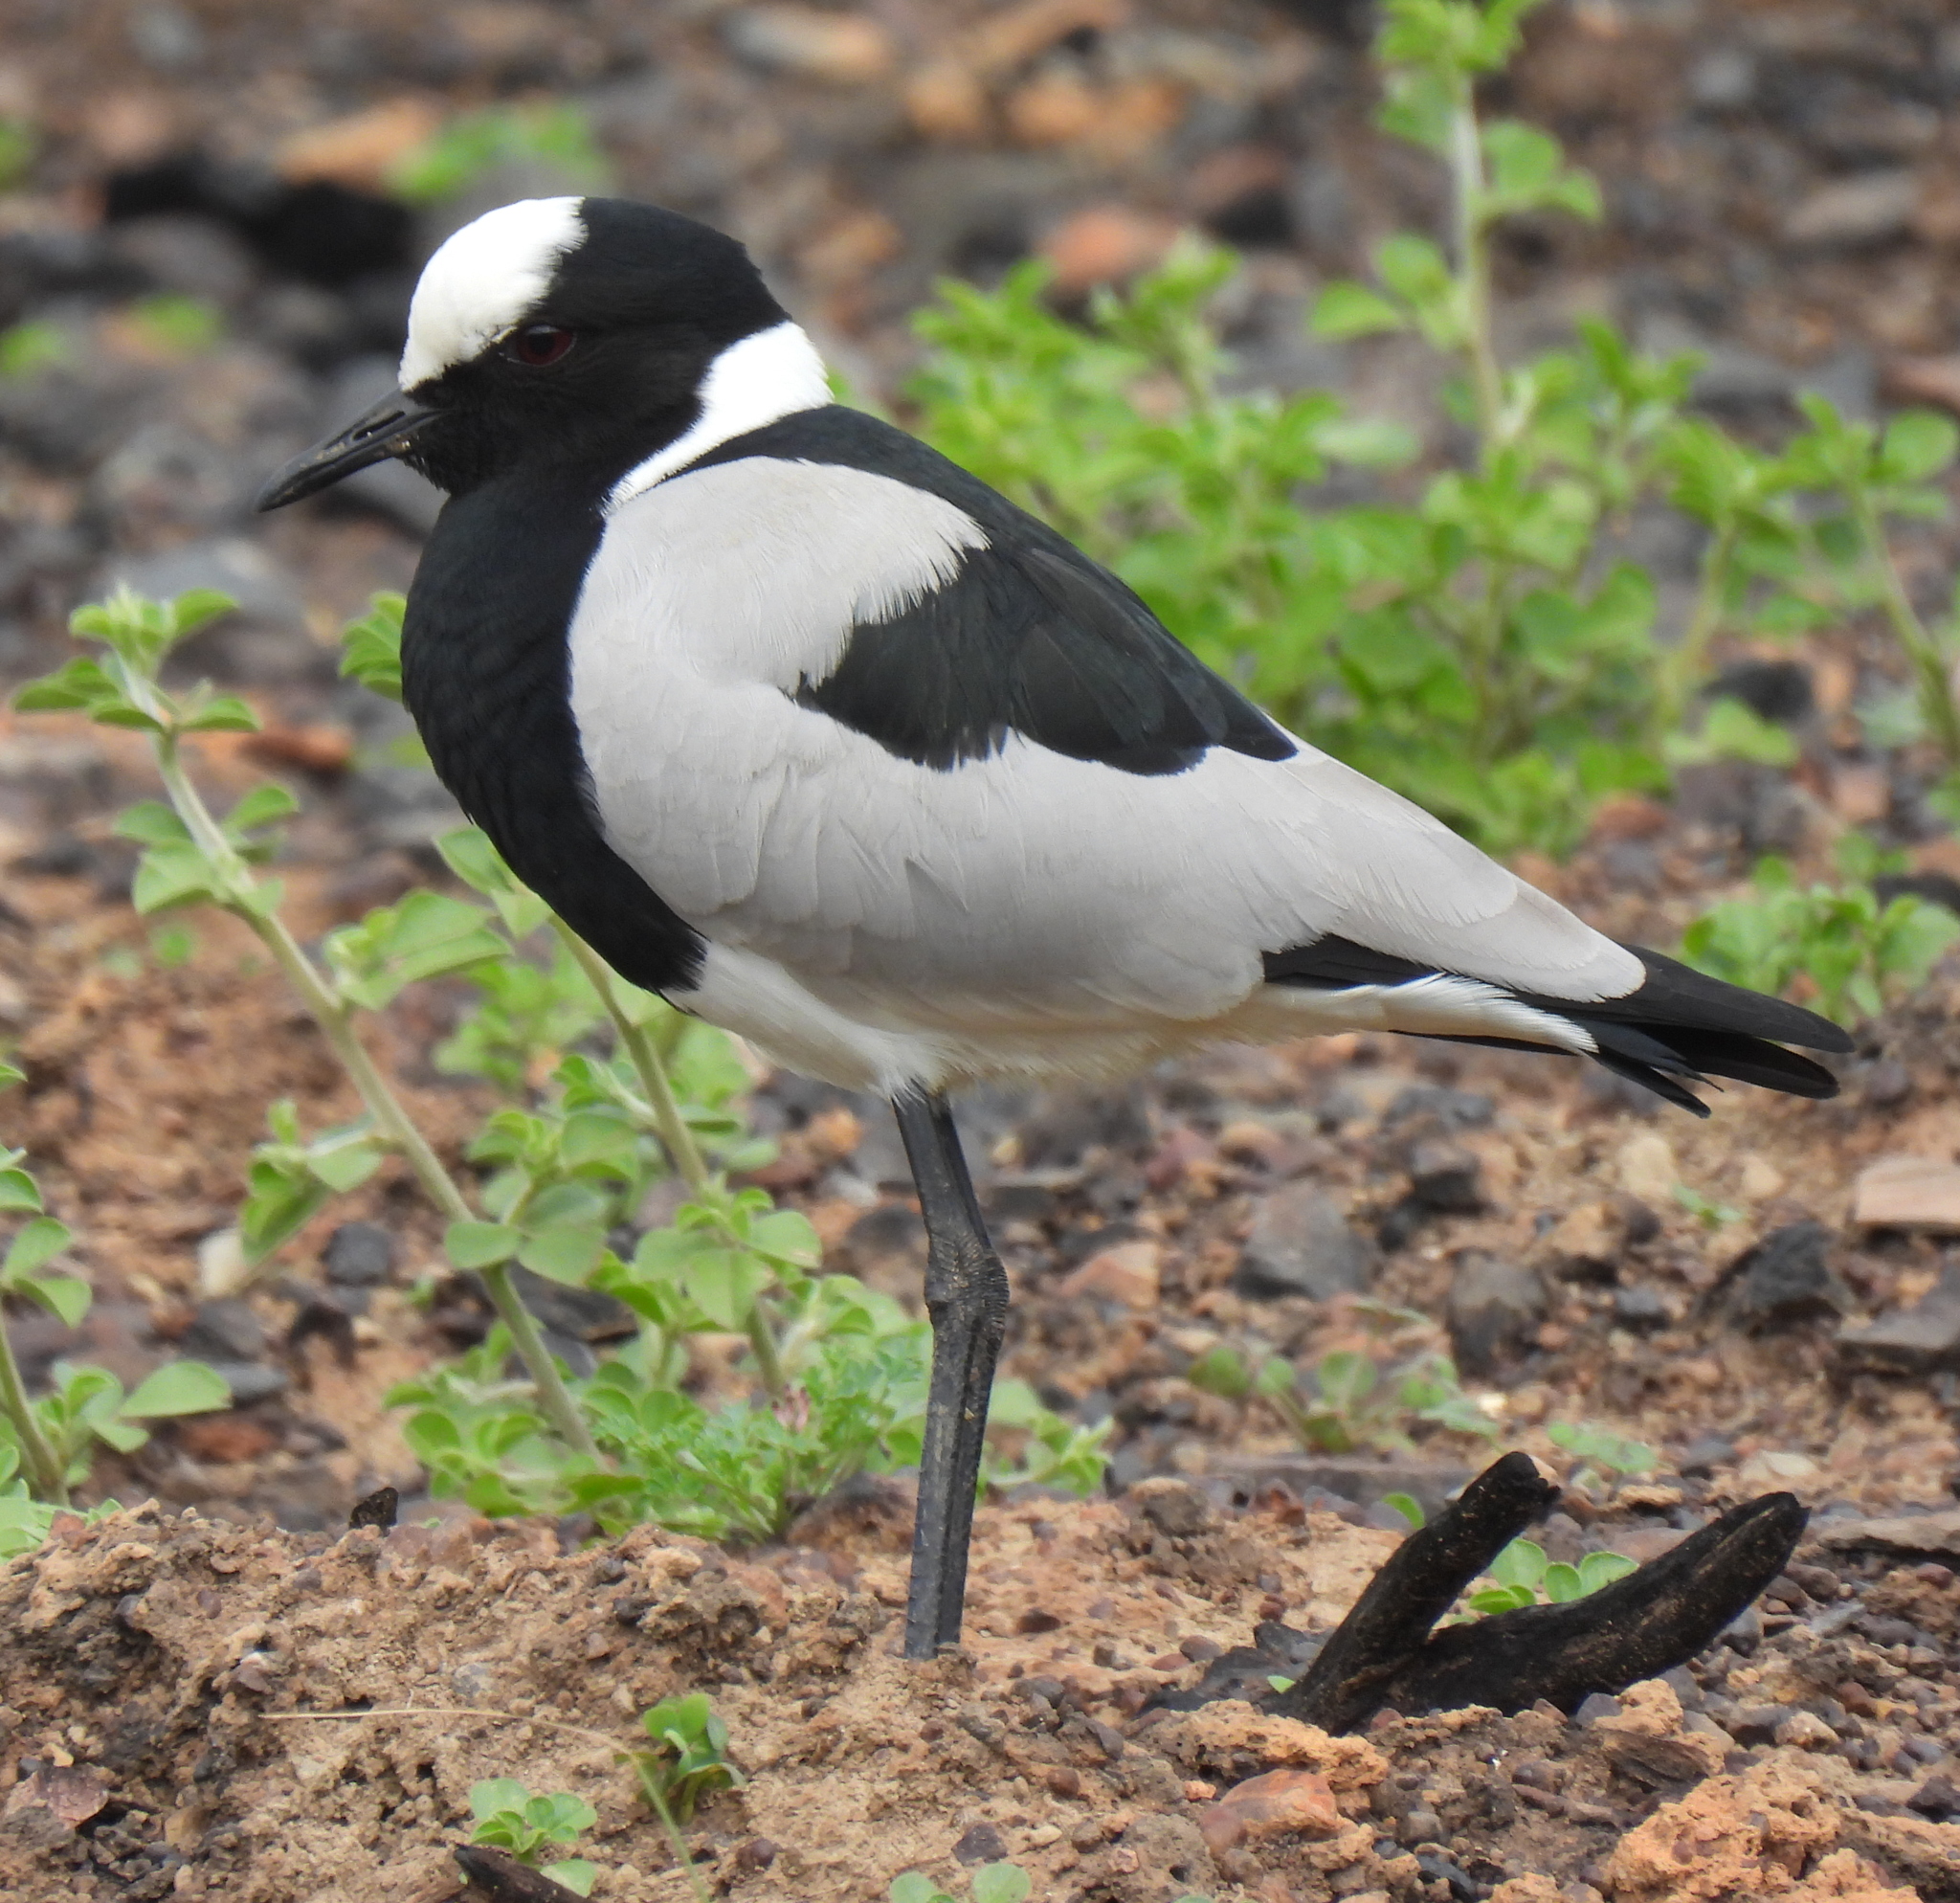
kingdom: Animalia
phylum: Chordata
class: Aves
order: Charadriiformes
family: Charadriidae
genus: Vanellus
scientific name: Vanellus armatus
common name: Blacksmith lapwing
